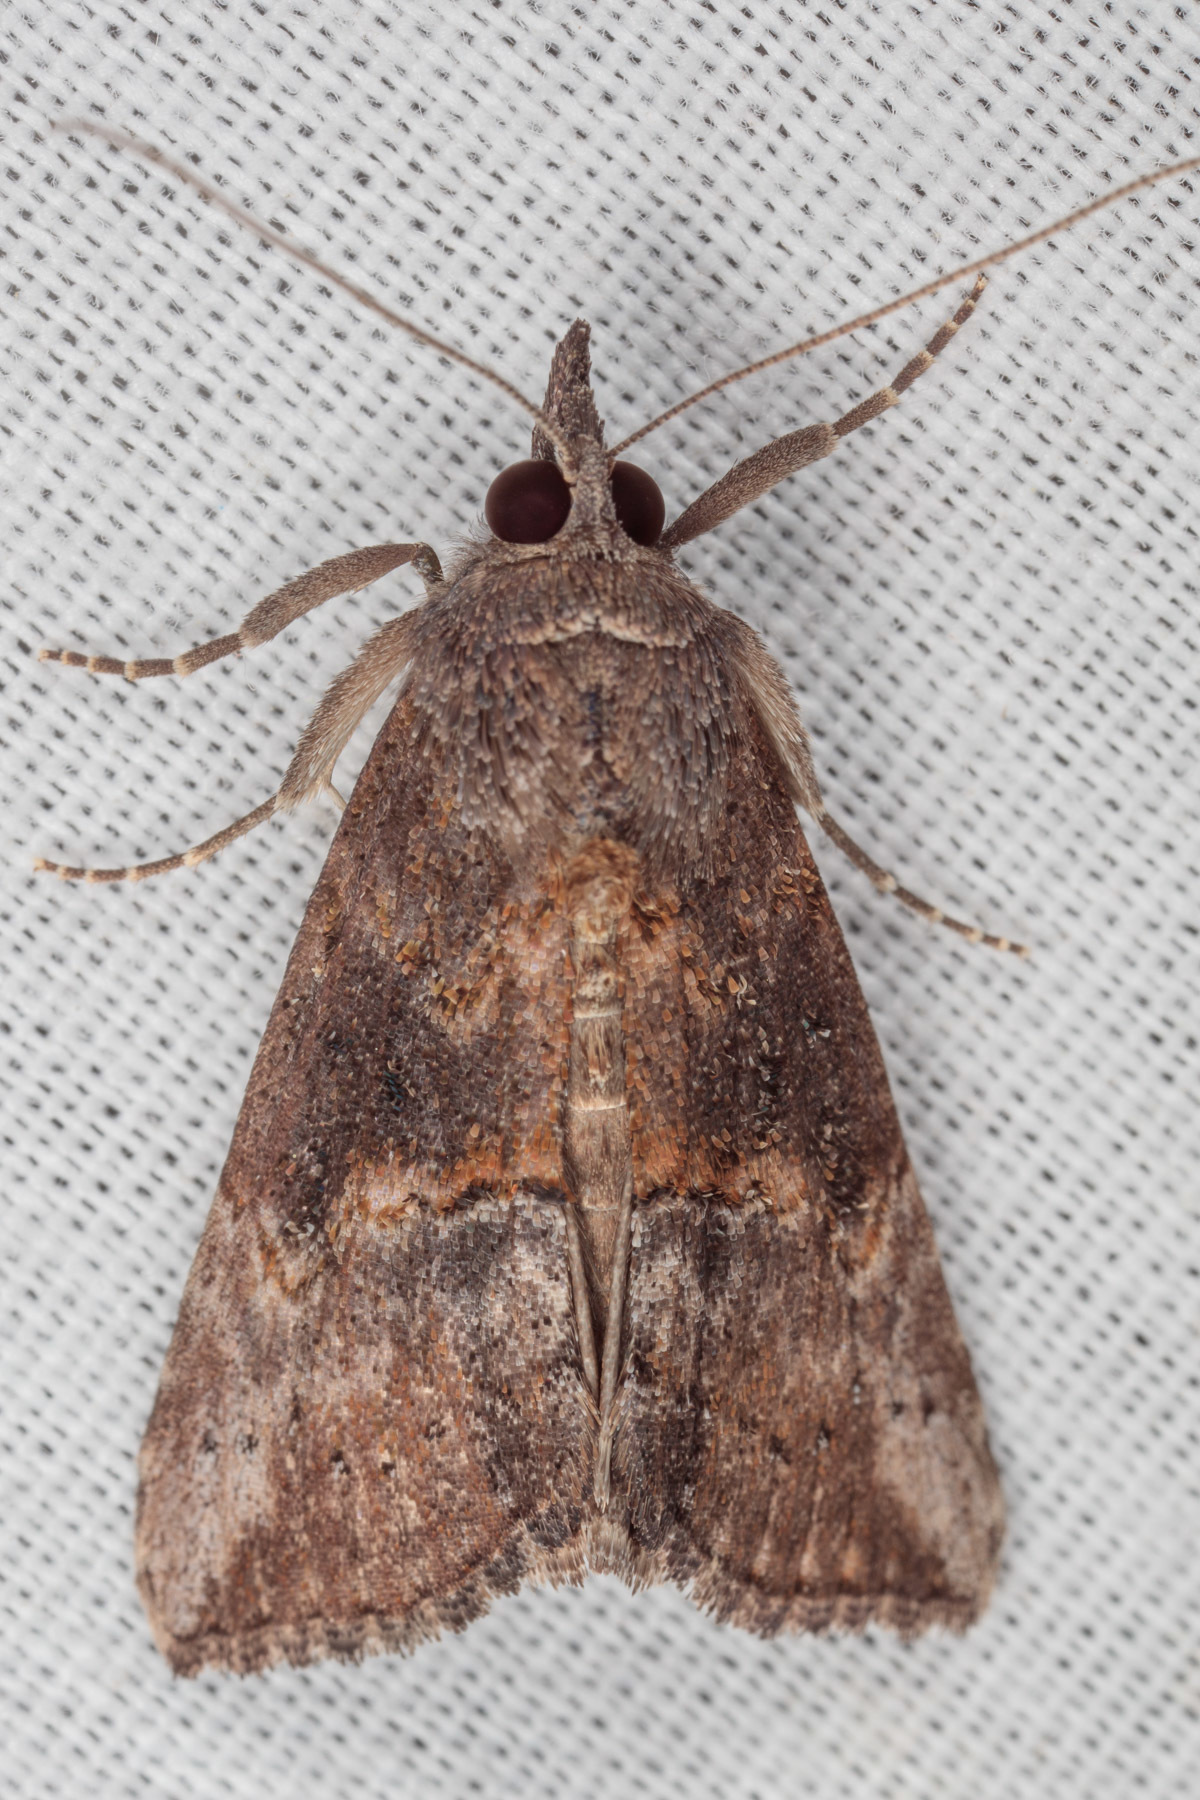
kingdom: Animalia
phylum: Arthropoda
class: Insecta
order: Lepidoptera
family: Erebidae
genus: Hypena
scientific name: Hypena scabra
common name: Green cloverworm
